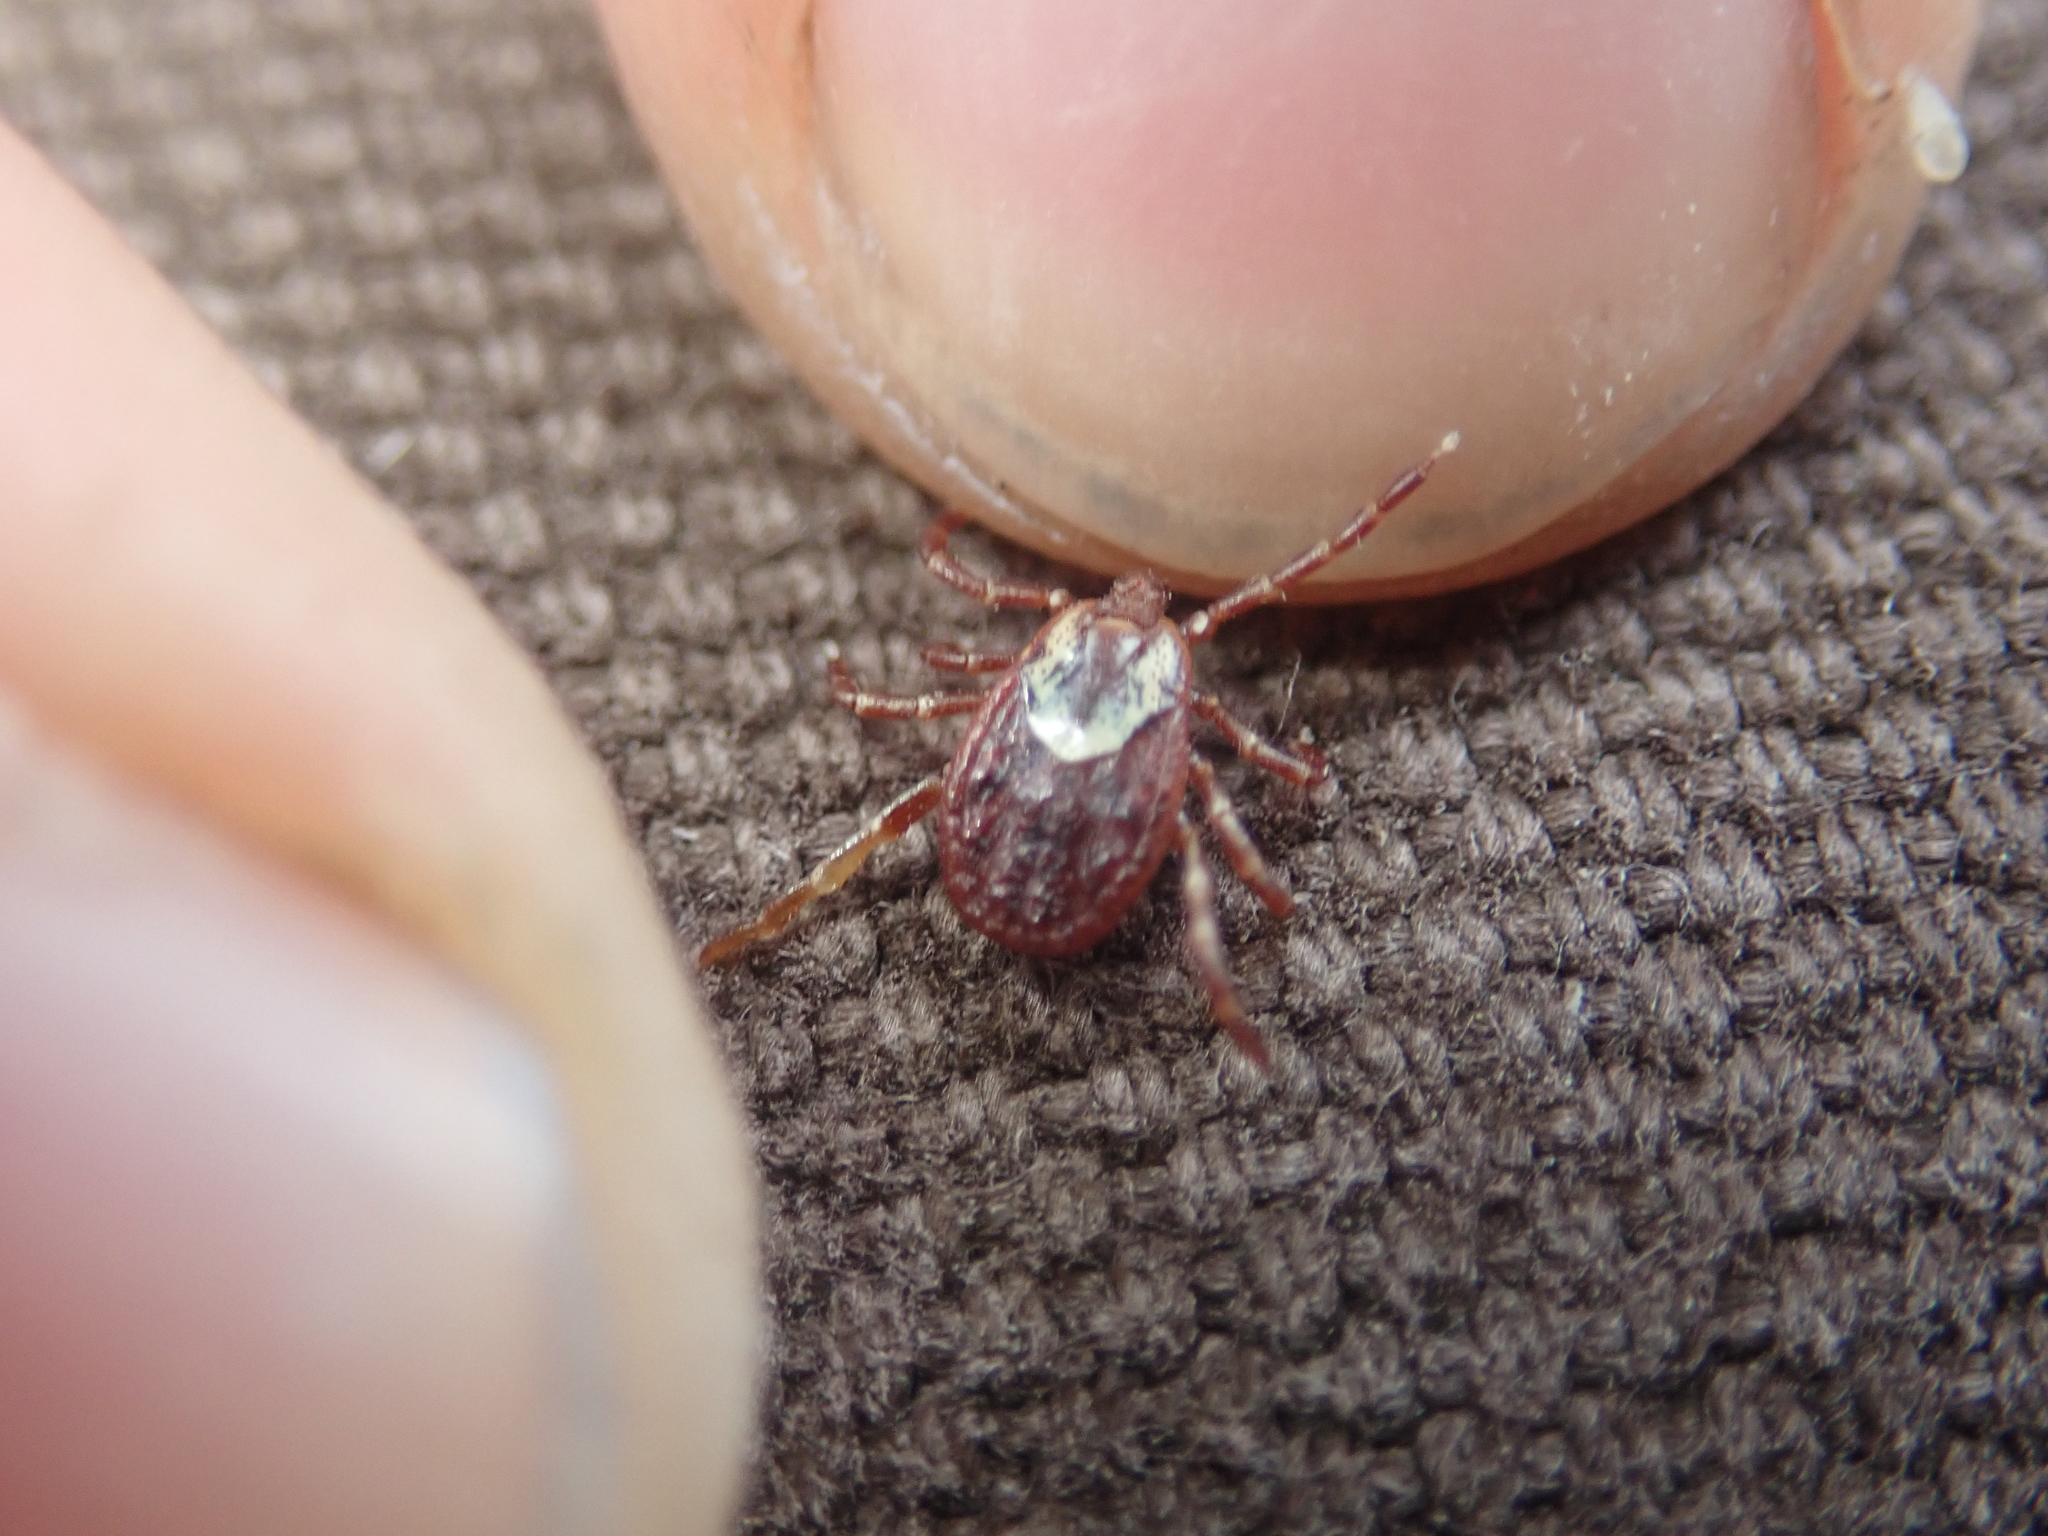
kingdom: Animalia
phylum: Arthropoda
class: Arachnida
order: Ixodida
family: Ixodidae
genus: Dermacentor
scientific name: Dermacentor variabilis
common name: American dog tick
